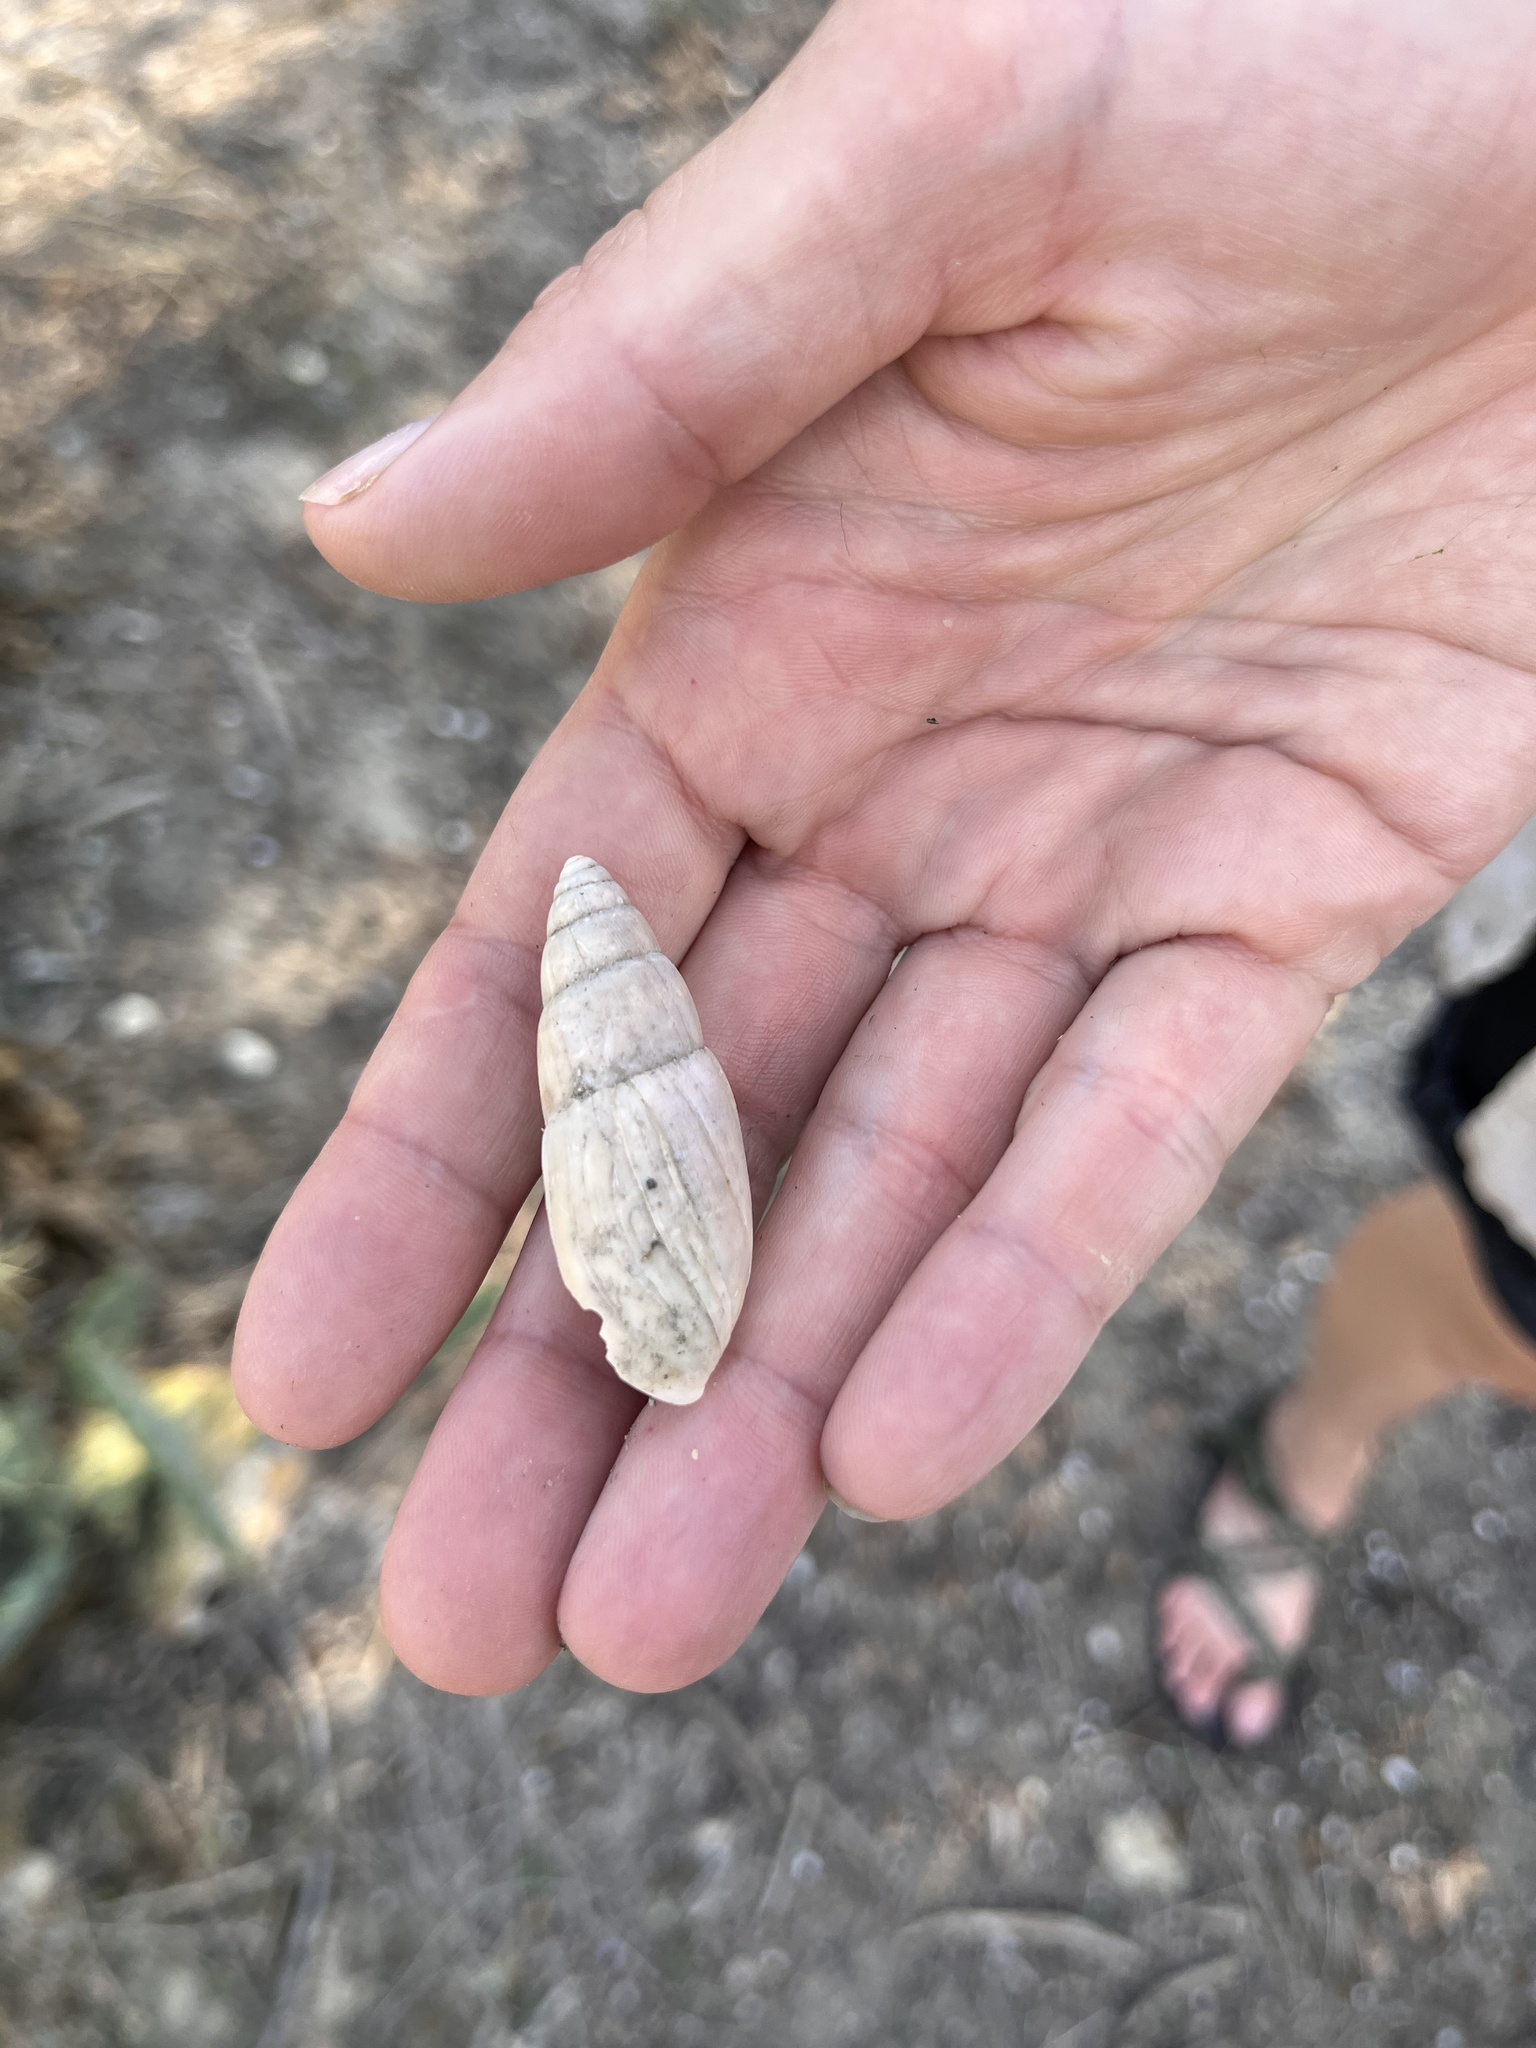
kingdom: Animalia
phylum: Mollusca
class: Gastropoda
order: Stylommatophora
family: Spiraxidae
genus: Euglandina
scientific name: Euglandina singleyana
